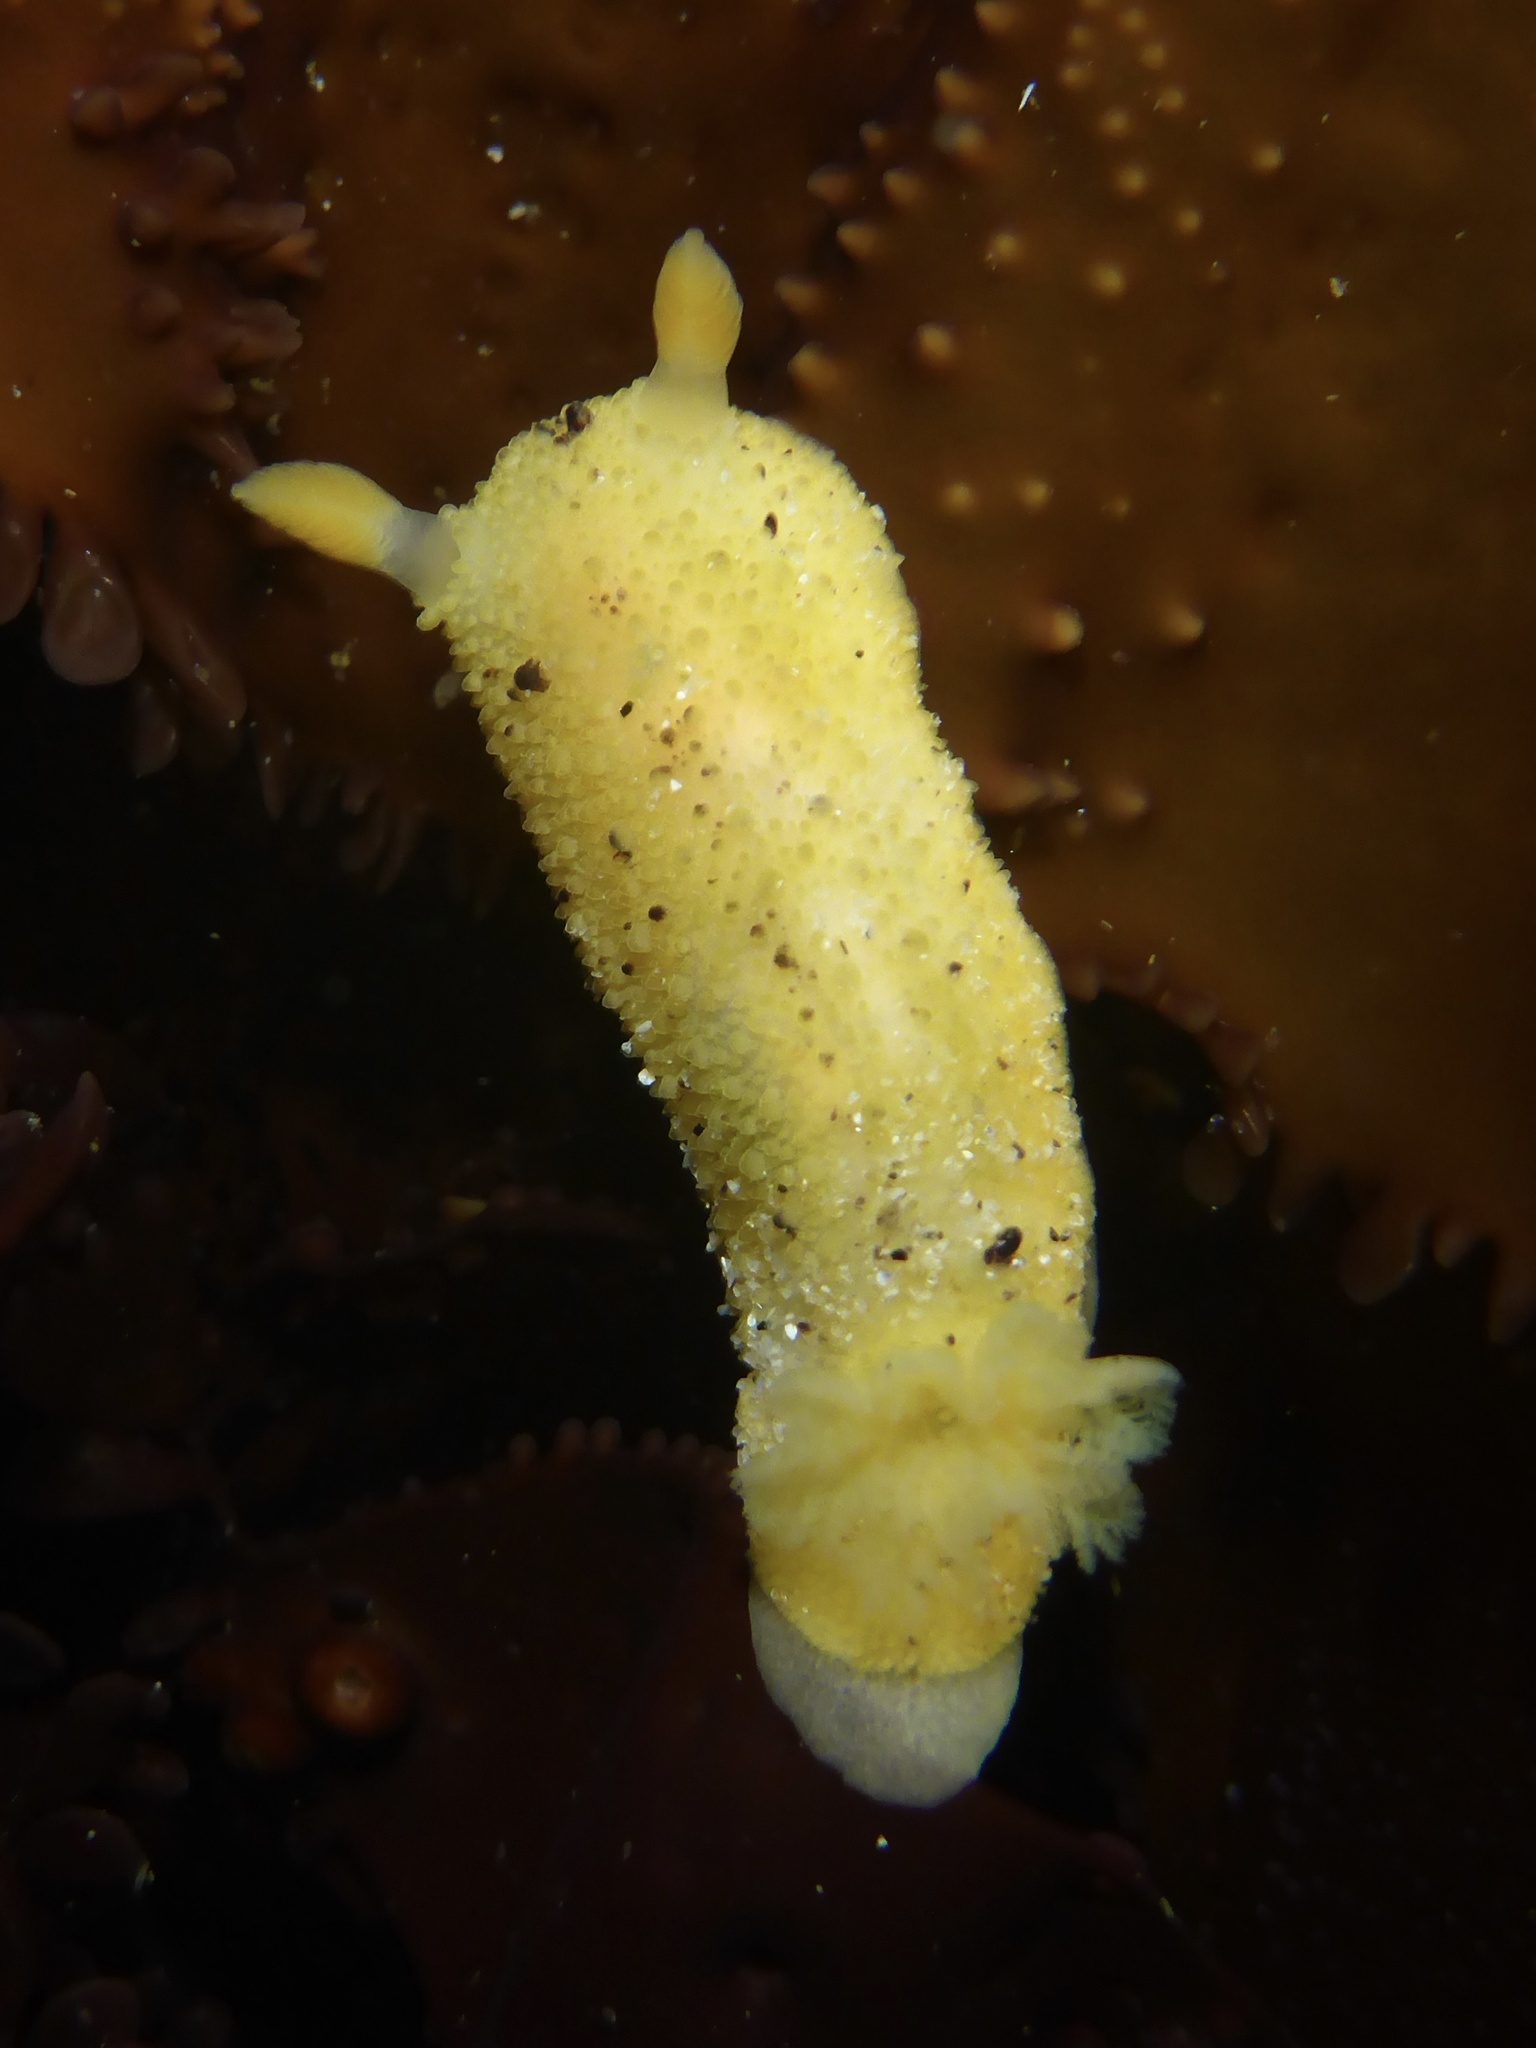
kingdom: Animalia
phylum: Mollusca
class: Gastropoda
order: Nudibranchia
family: Dorididae
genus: Doris
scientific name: Doris montereyensis
